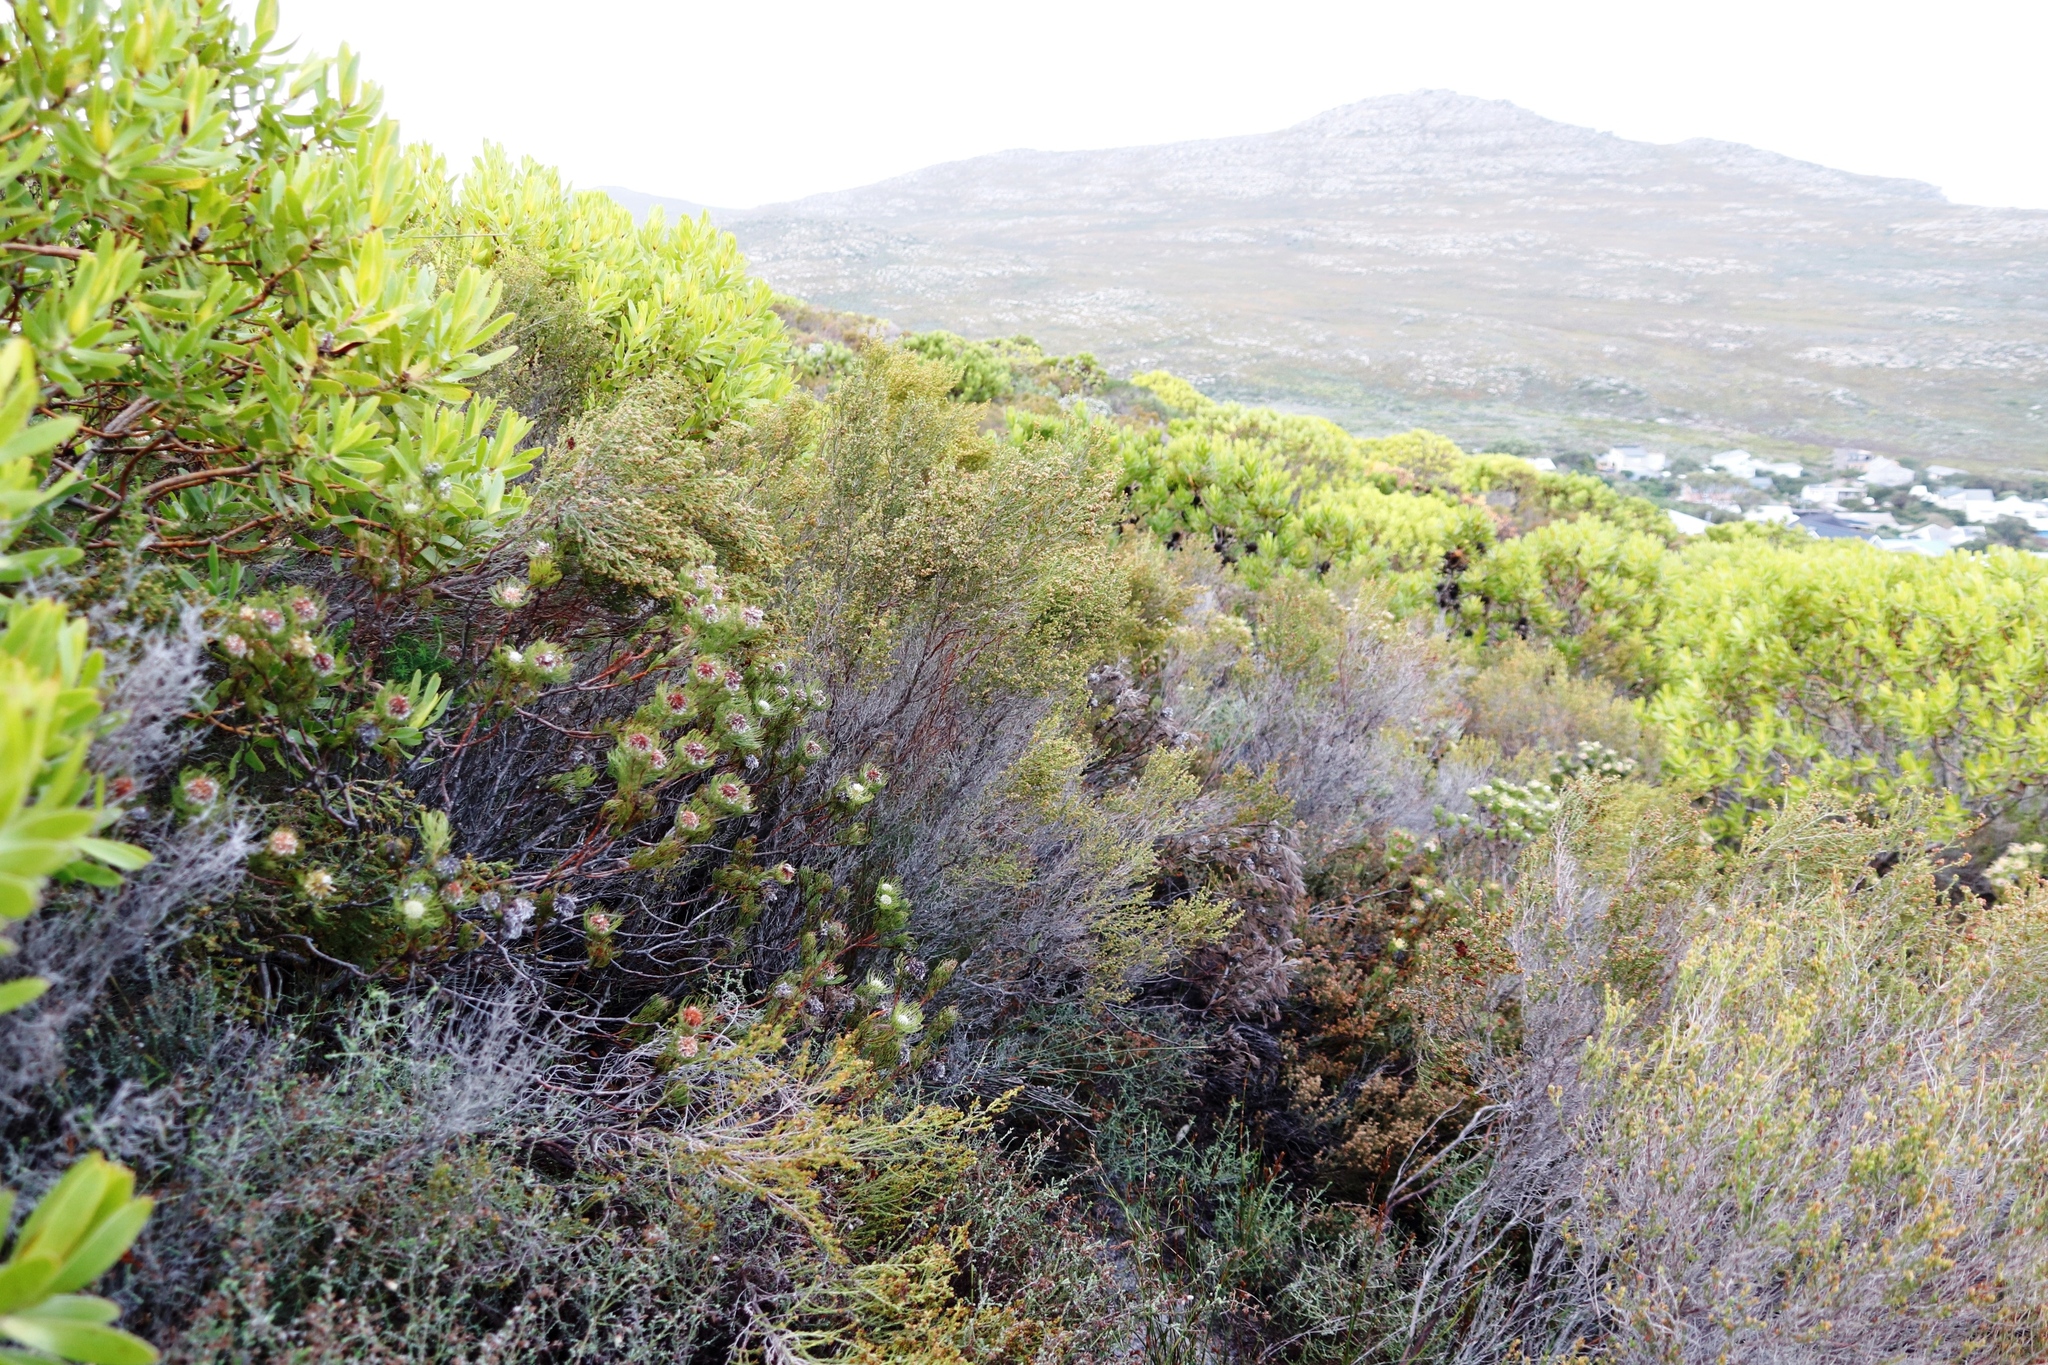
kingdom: Plantae
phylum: Tracheophyta
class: Magnoliopsida
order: Ericales
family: Ericaceae
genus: Erica
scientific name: Erica axillaris
